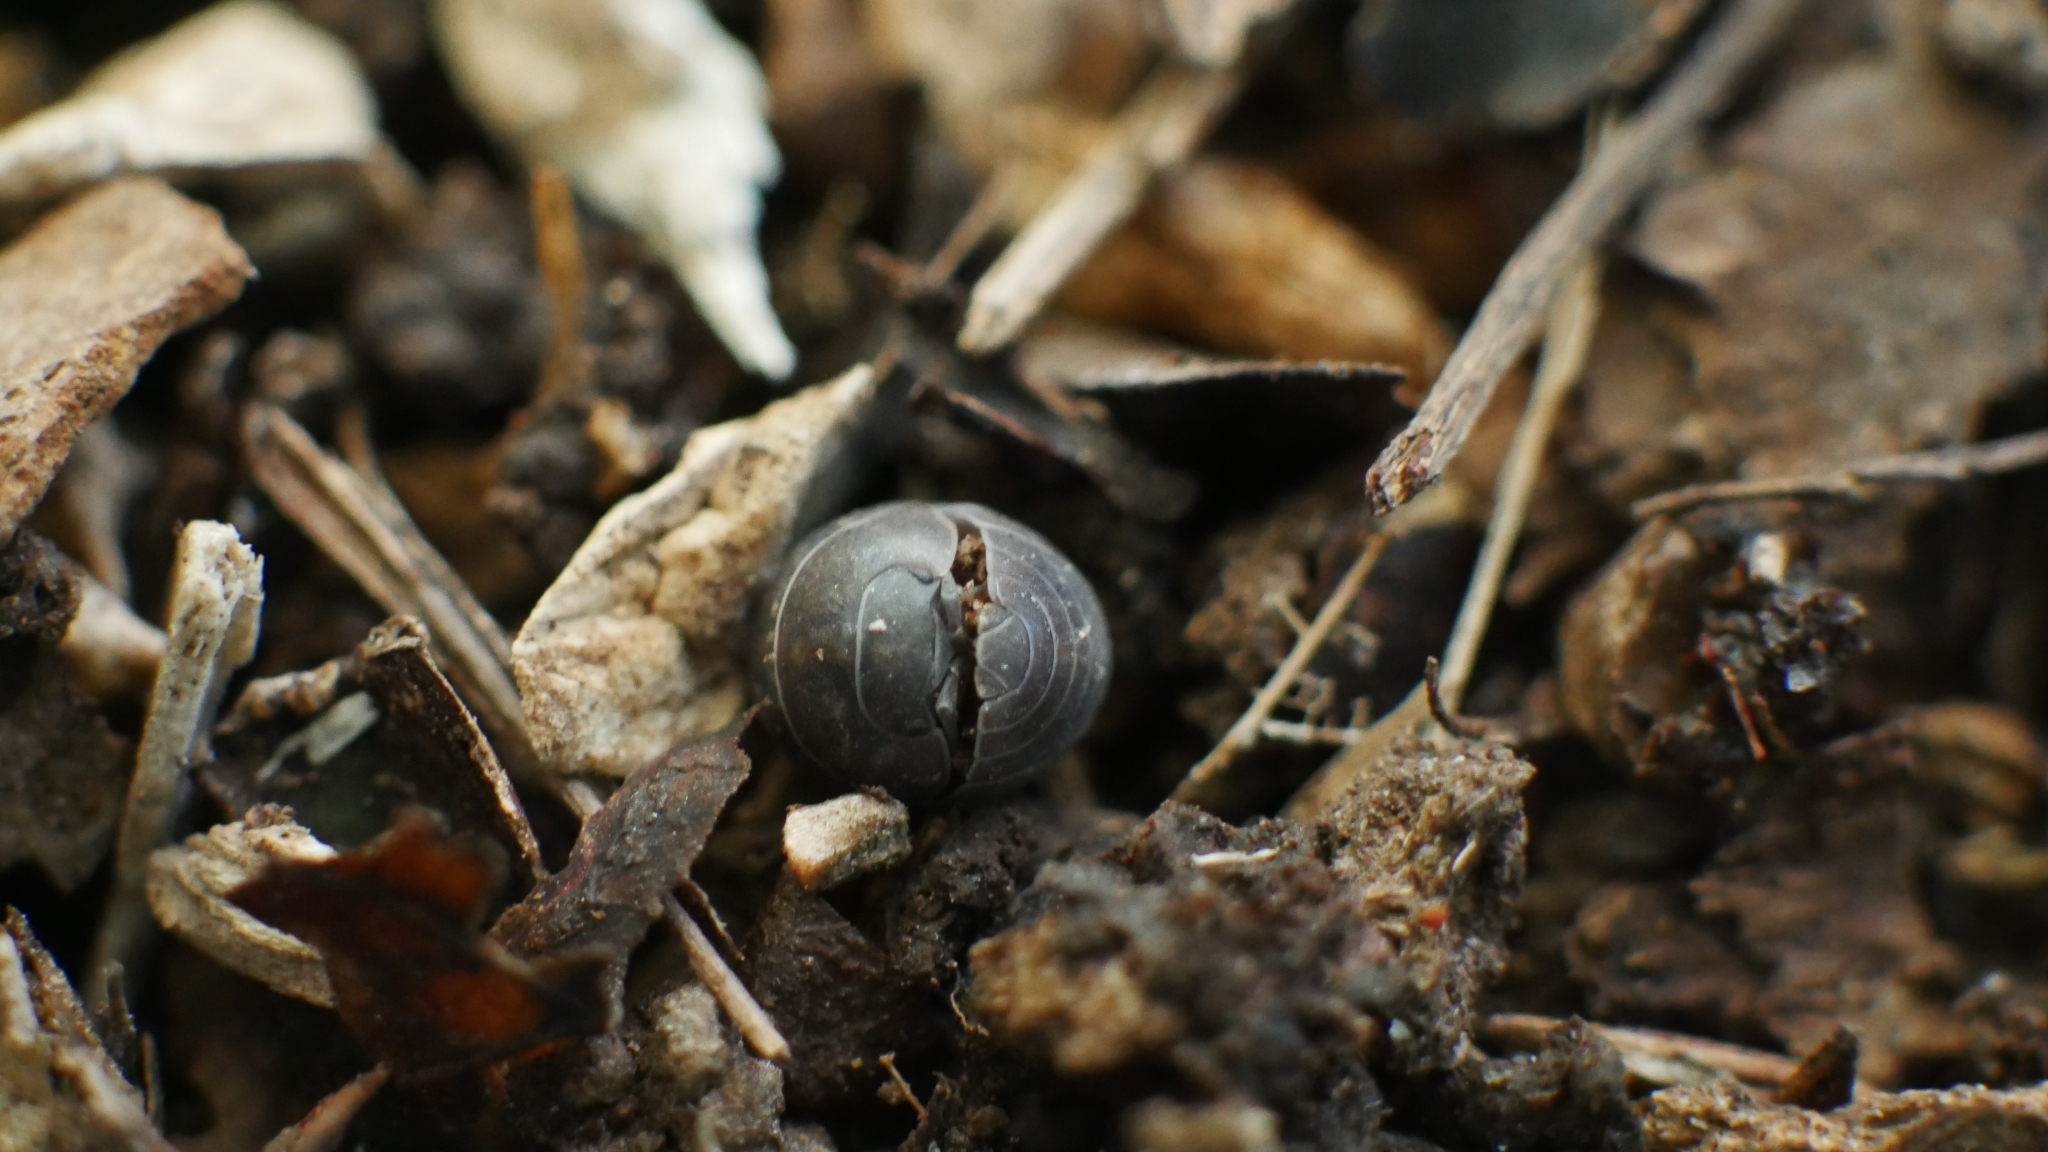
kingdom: Animalia
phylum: Arthropoda
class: Malacostraca
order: Isopoda
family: Armadillidiidae
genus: Armadillidium
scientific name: Armadillidium vulgare
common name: Common pill woodlouse
